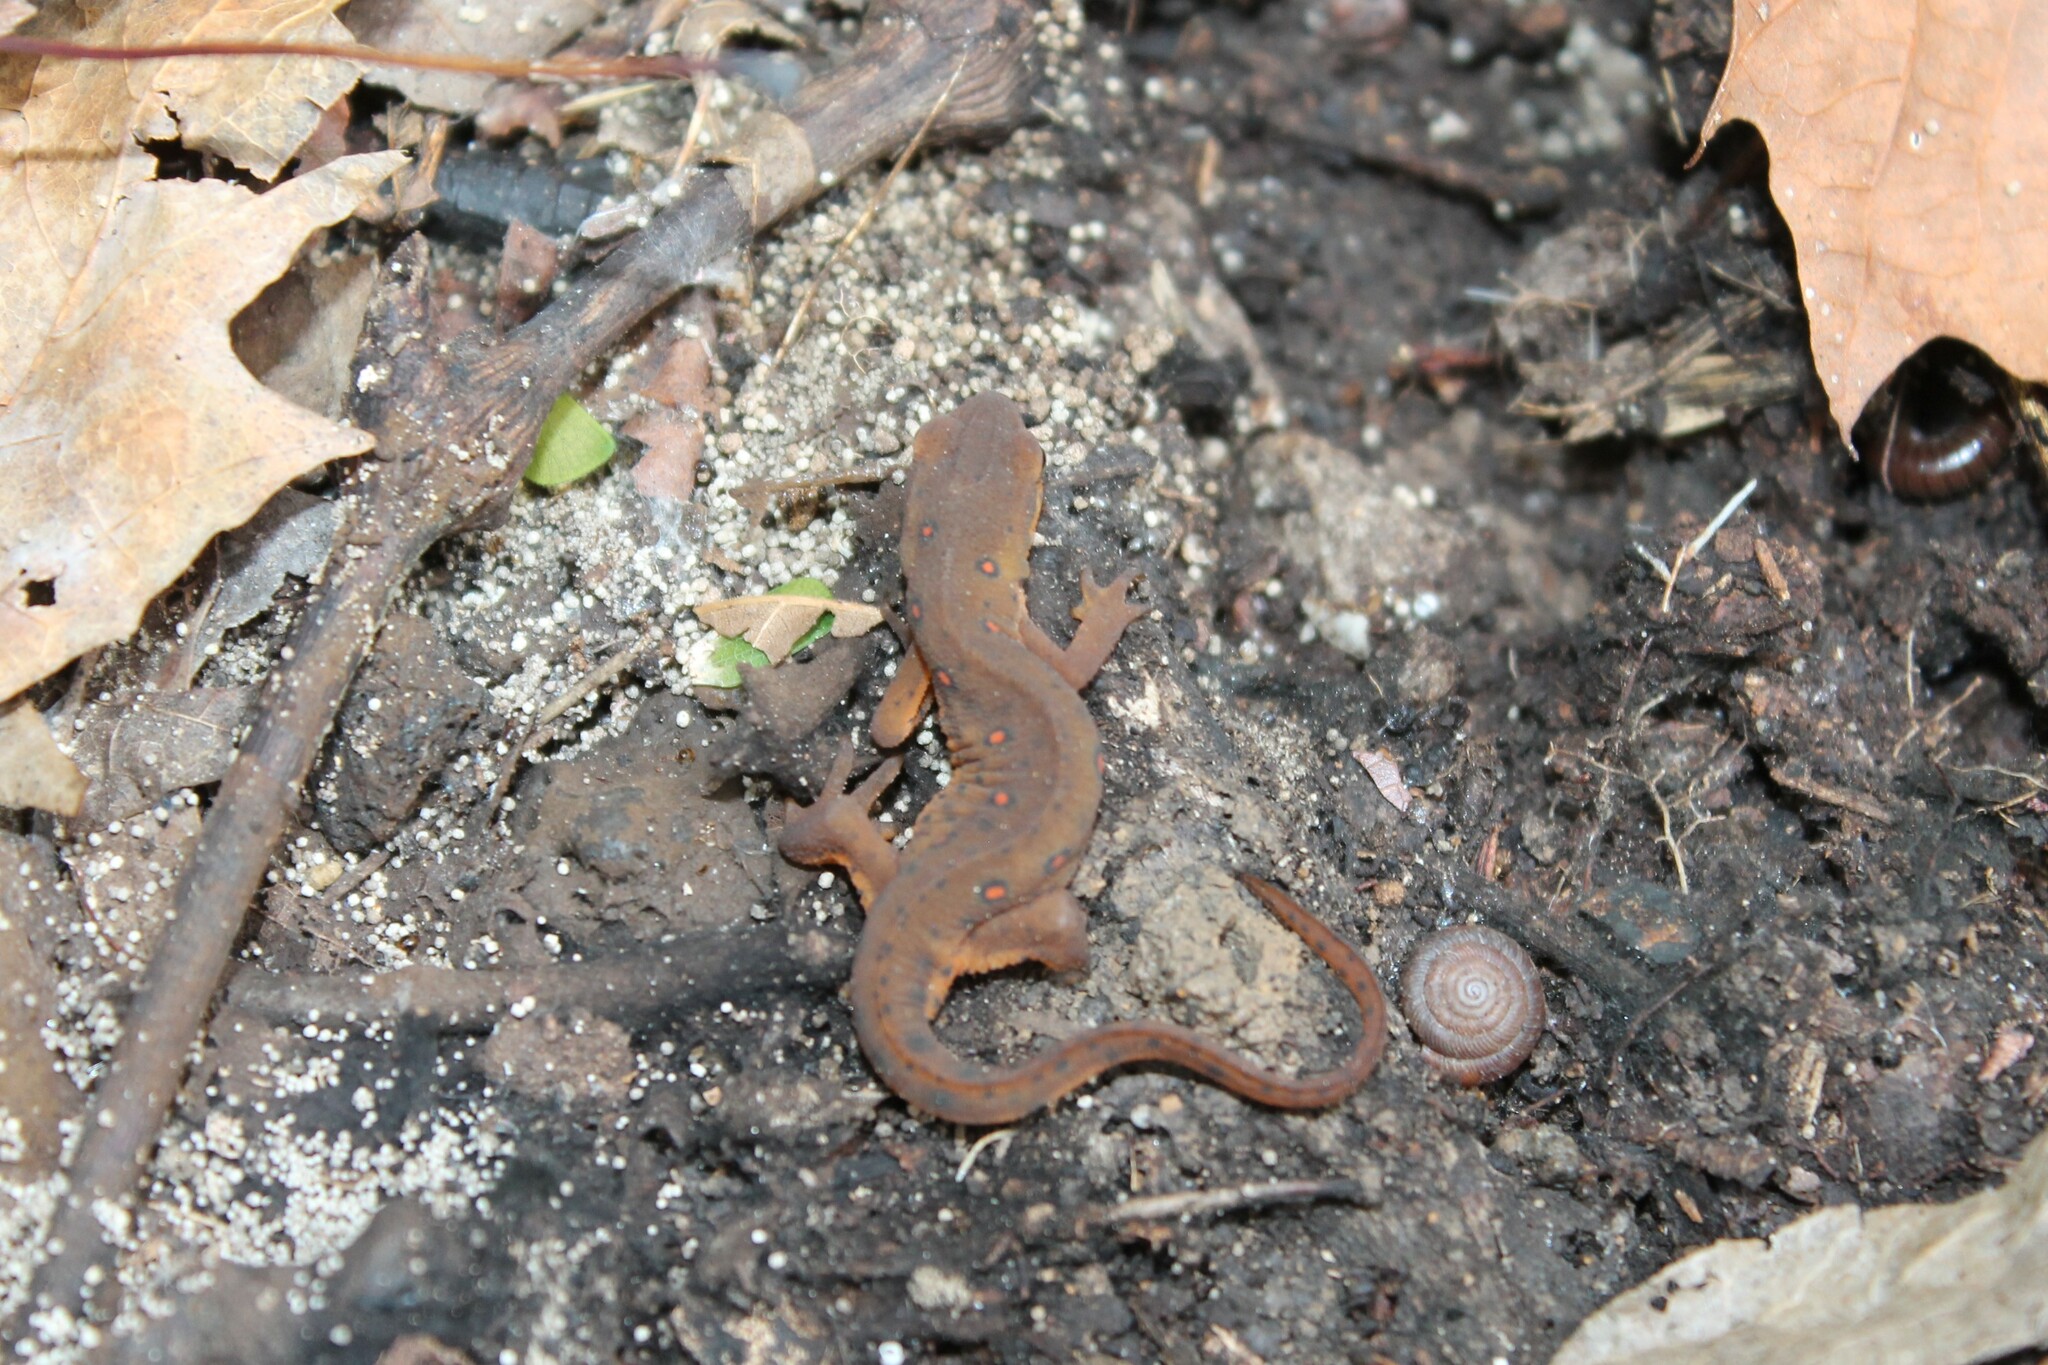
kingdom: Animalia
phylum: Chordata
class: Amphibia
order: Caudata
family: Salamandridae
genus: Notophthalmus
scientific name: Notophthalmus viridescens
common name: Eastern newt
